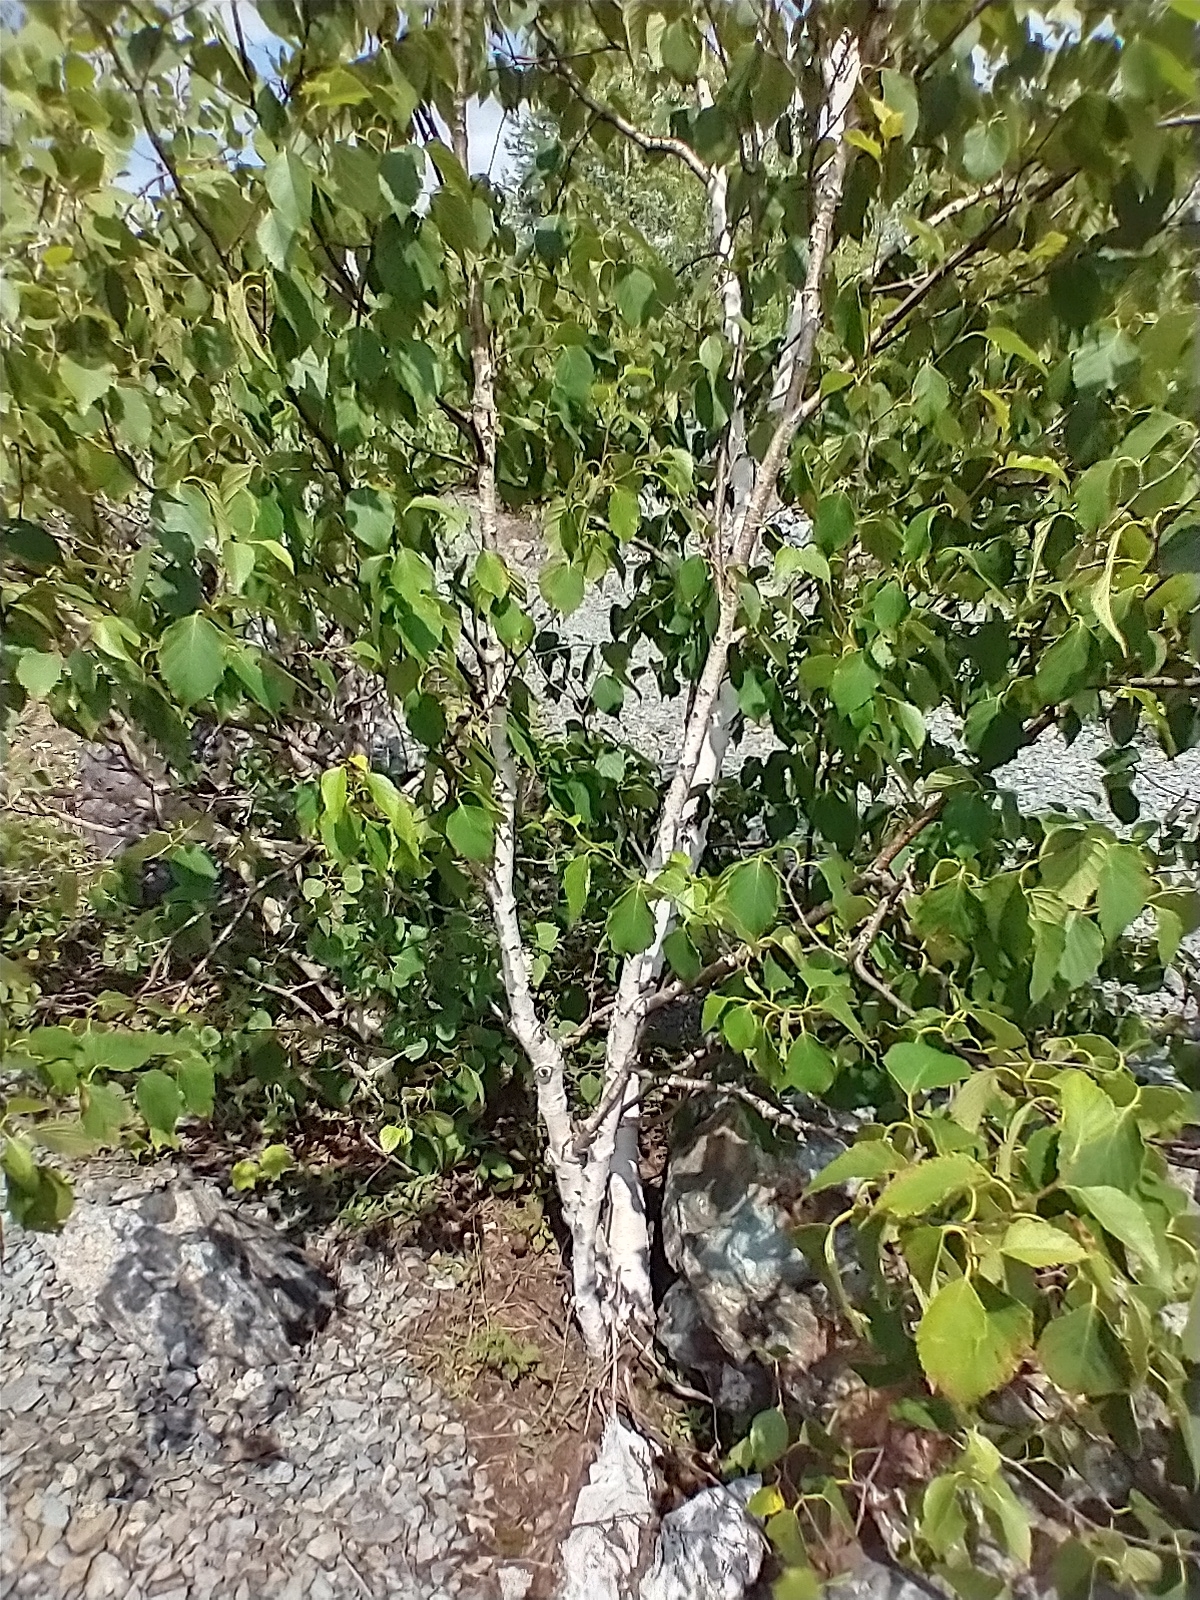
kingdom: Plantae
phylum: Tracheophyta
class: Magnoliopsida
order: Fagales
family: Betulaceae
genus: Betula
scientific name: Betula papyrifera
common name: Paper birch
